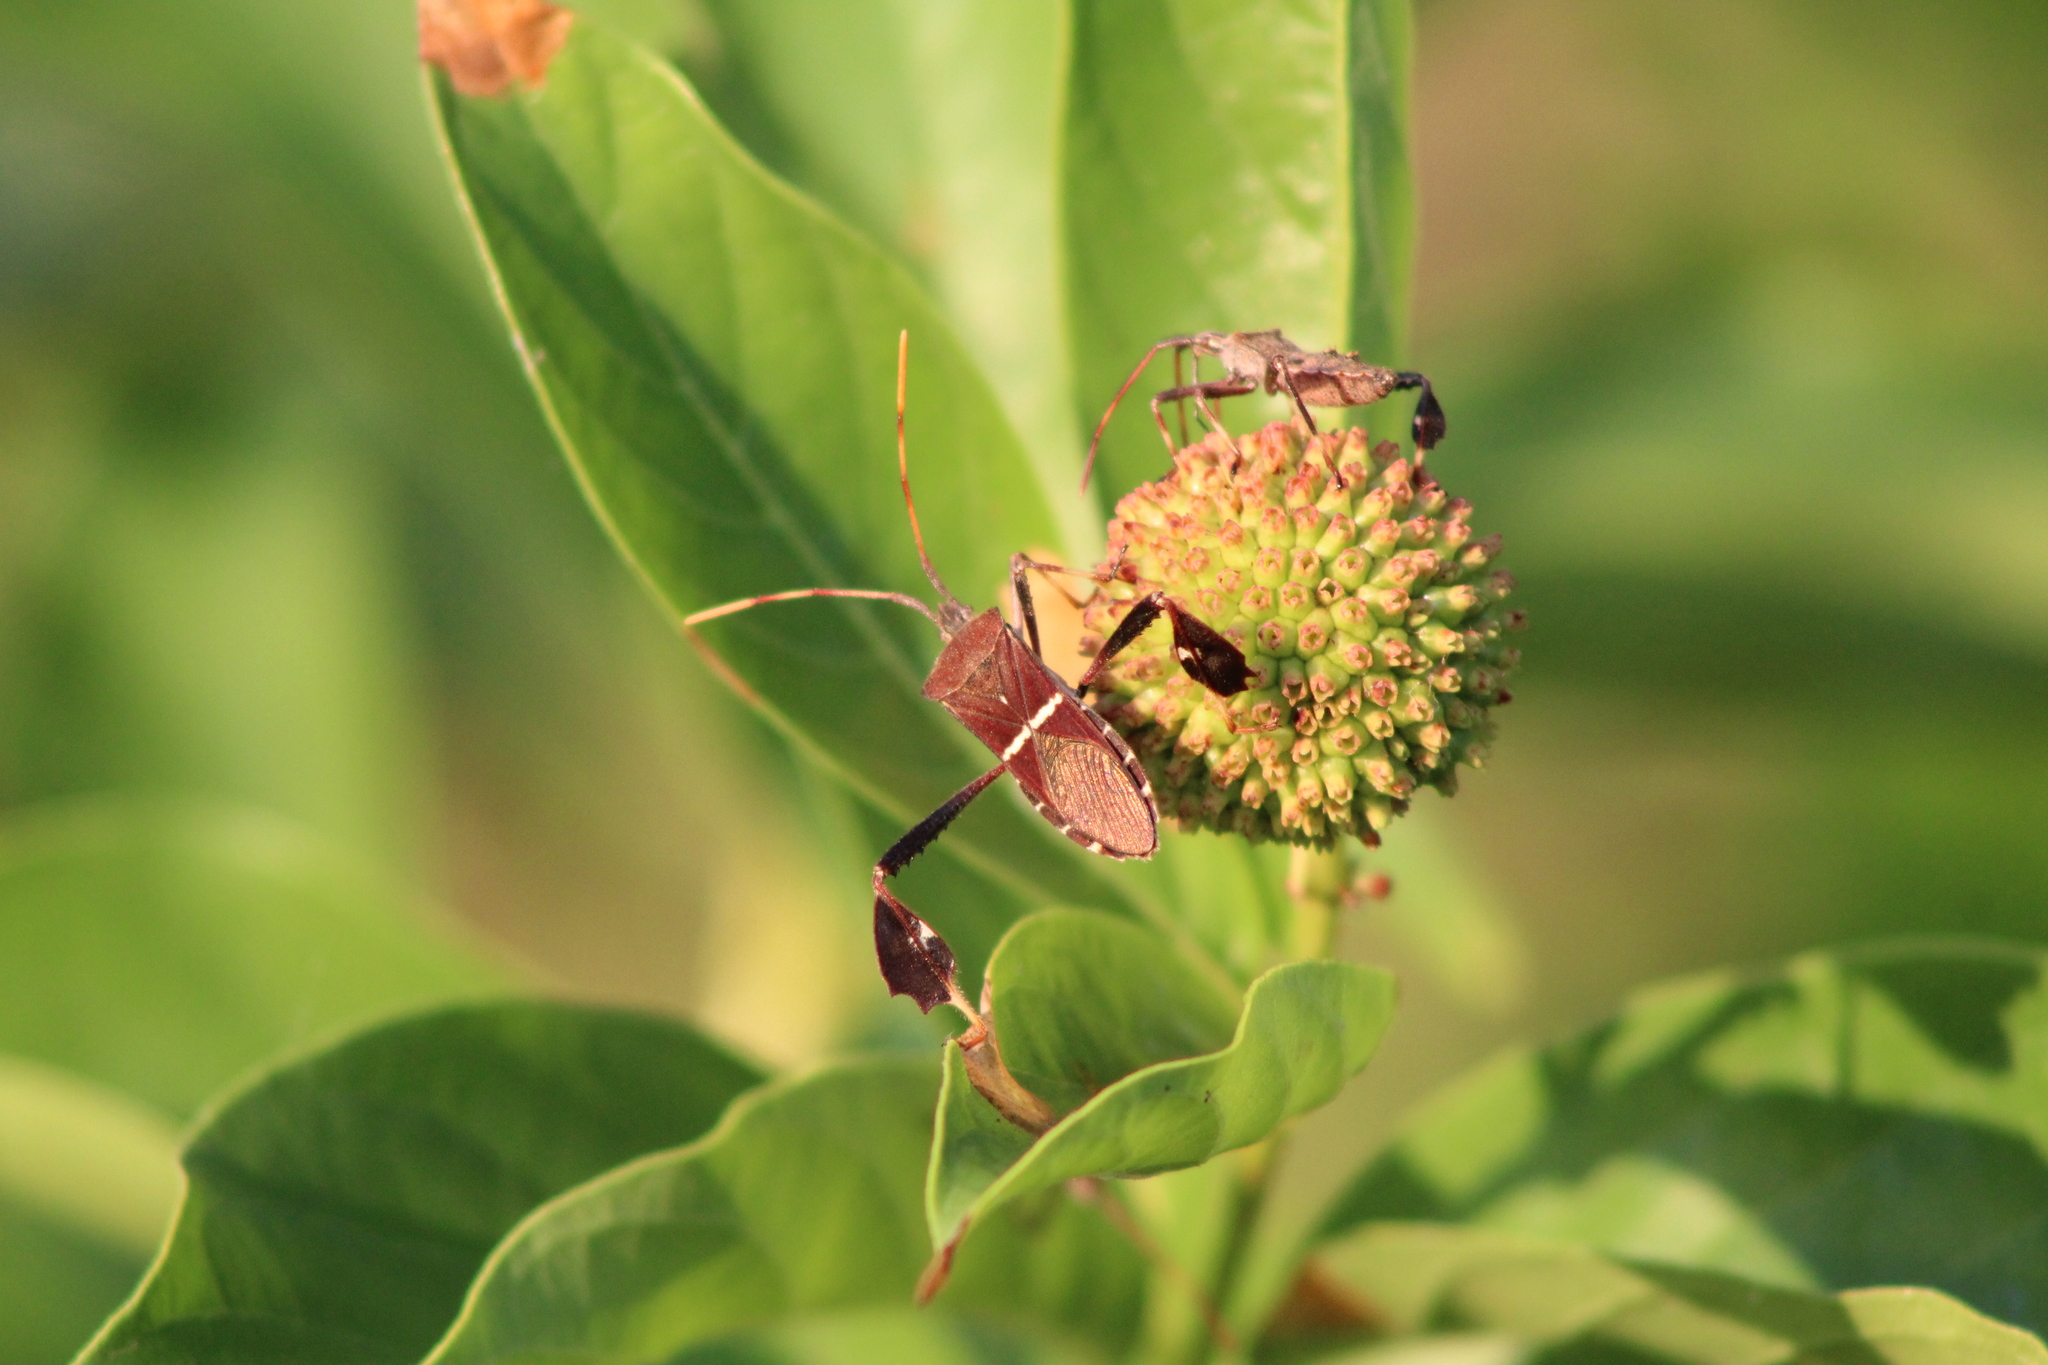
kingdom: Animalia
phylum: Arthropoda
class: Insecta
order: Hemiptera
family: Coreidae
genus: Leptoglossus
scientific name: Leptoglossus phyllopus
